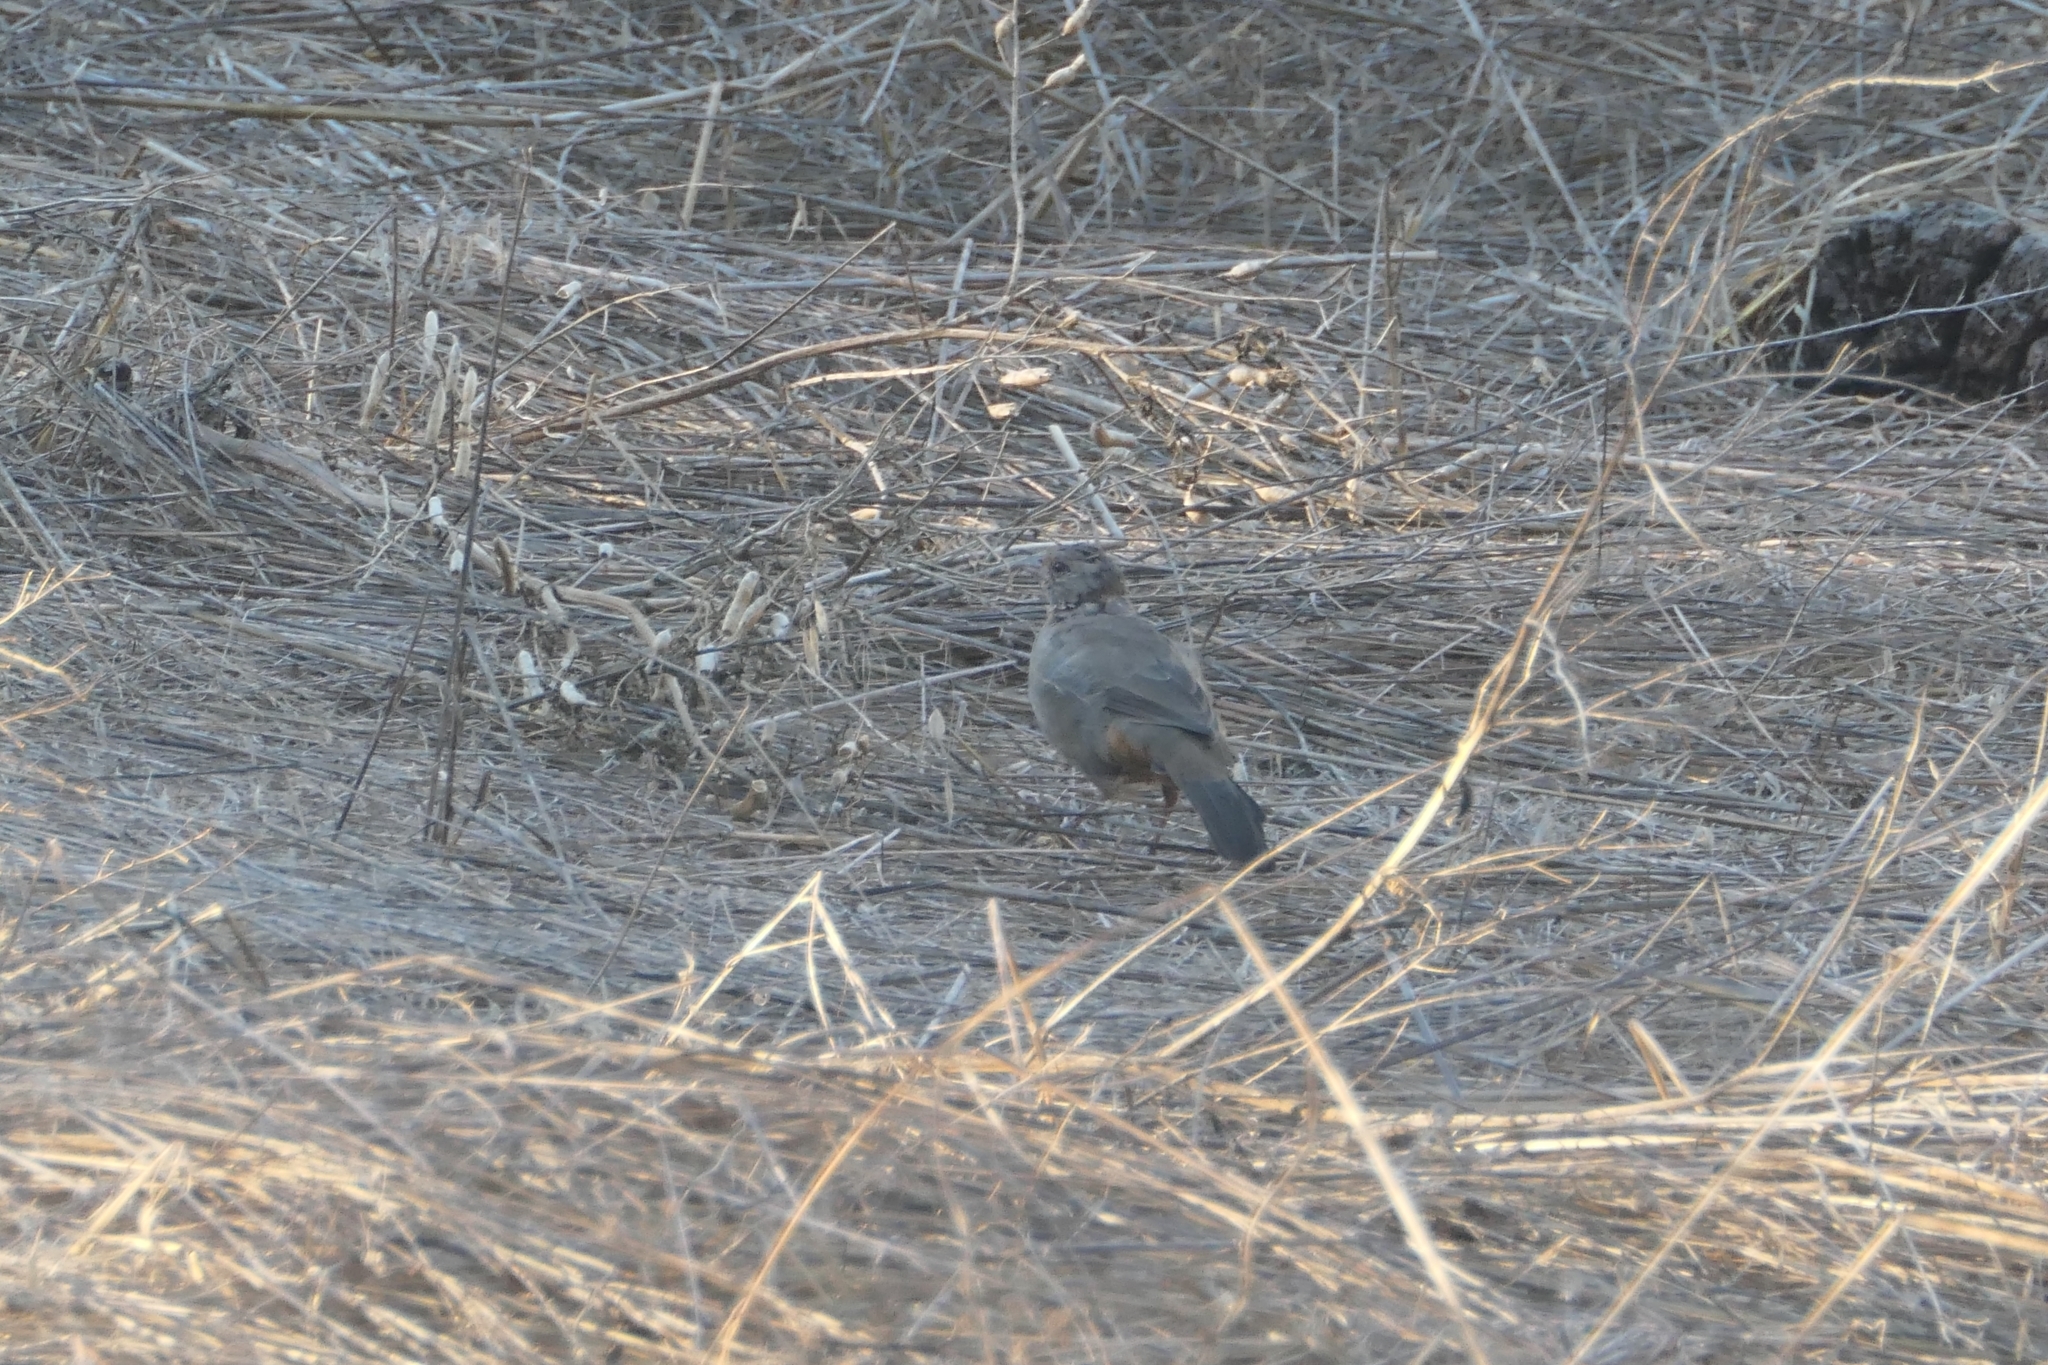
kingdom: Animalia
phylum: Chordata
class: Aves
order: Passeriformes
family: Passerellidae
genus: Melozone
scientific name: Melozone crissalis
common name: California towhee
